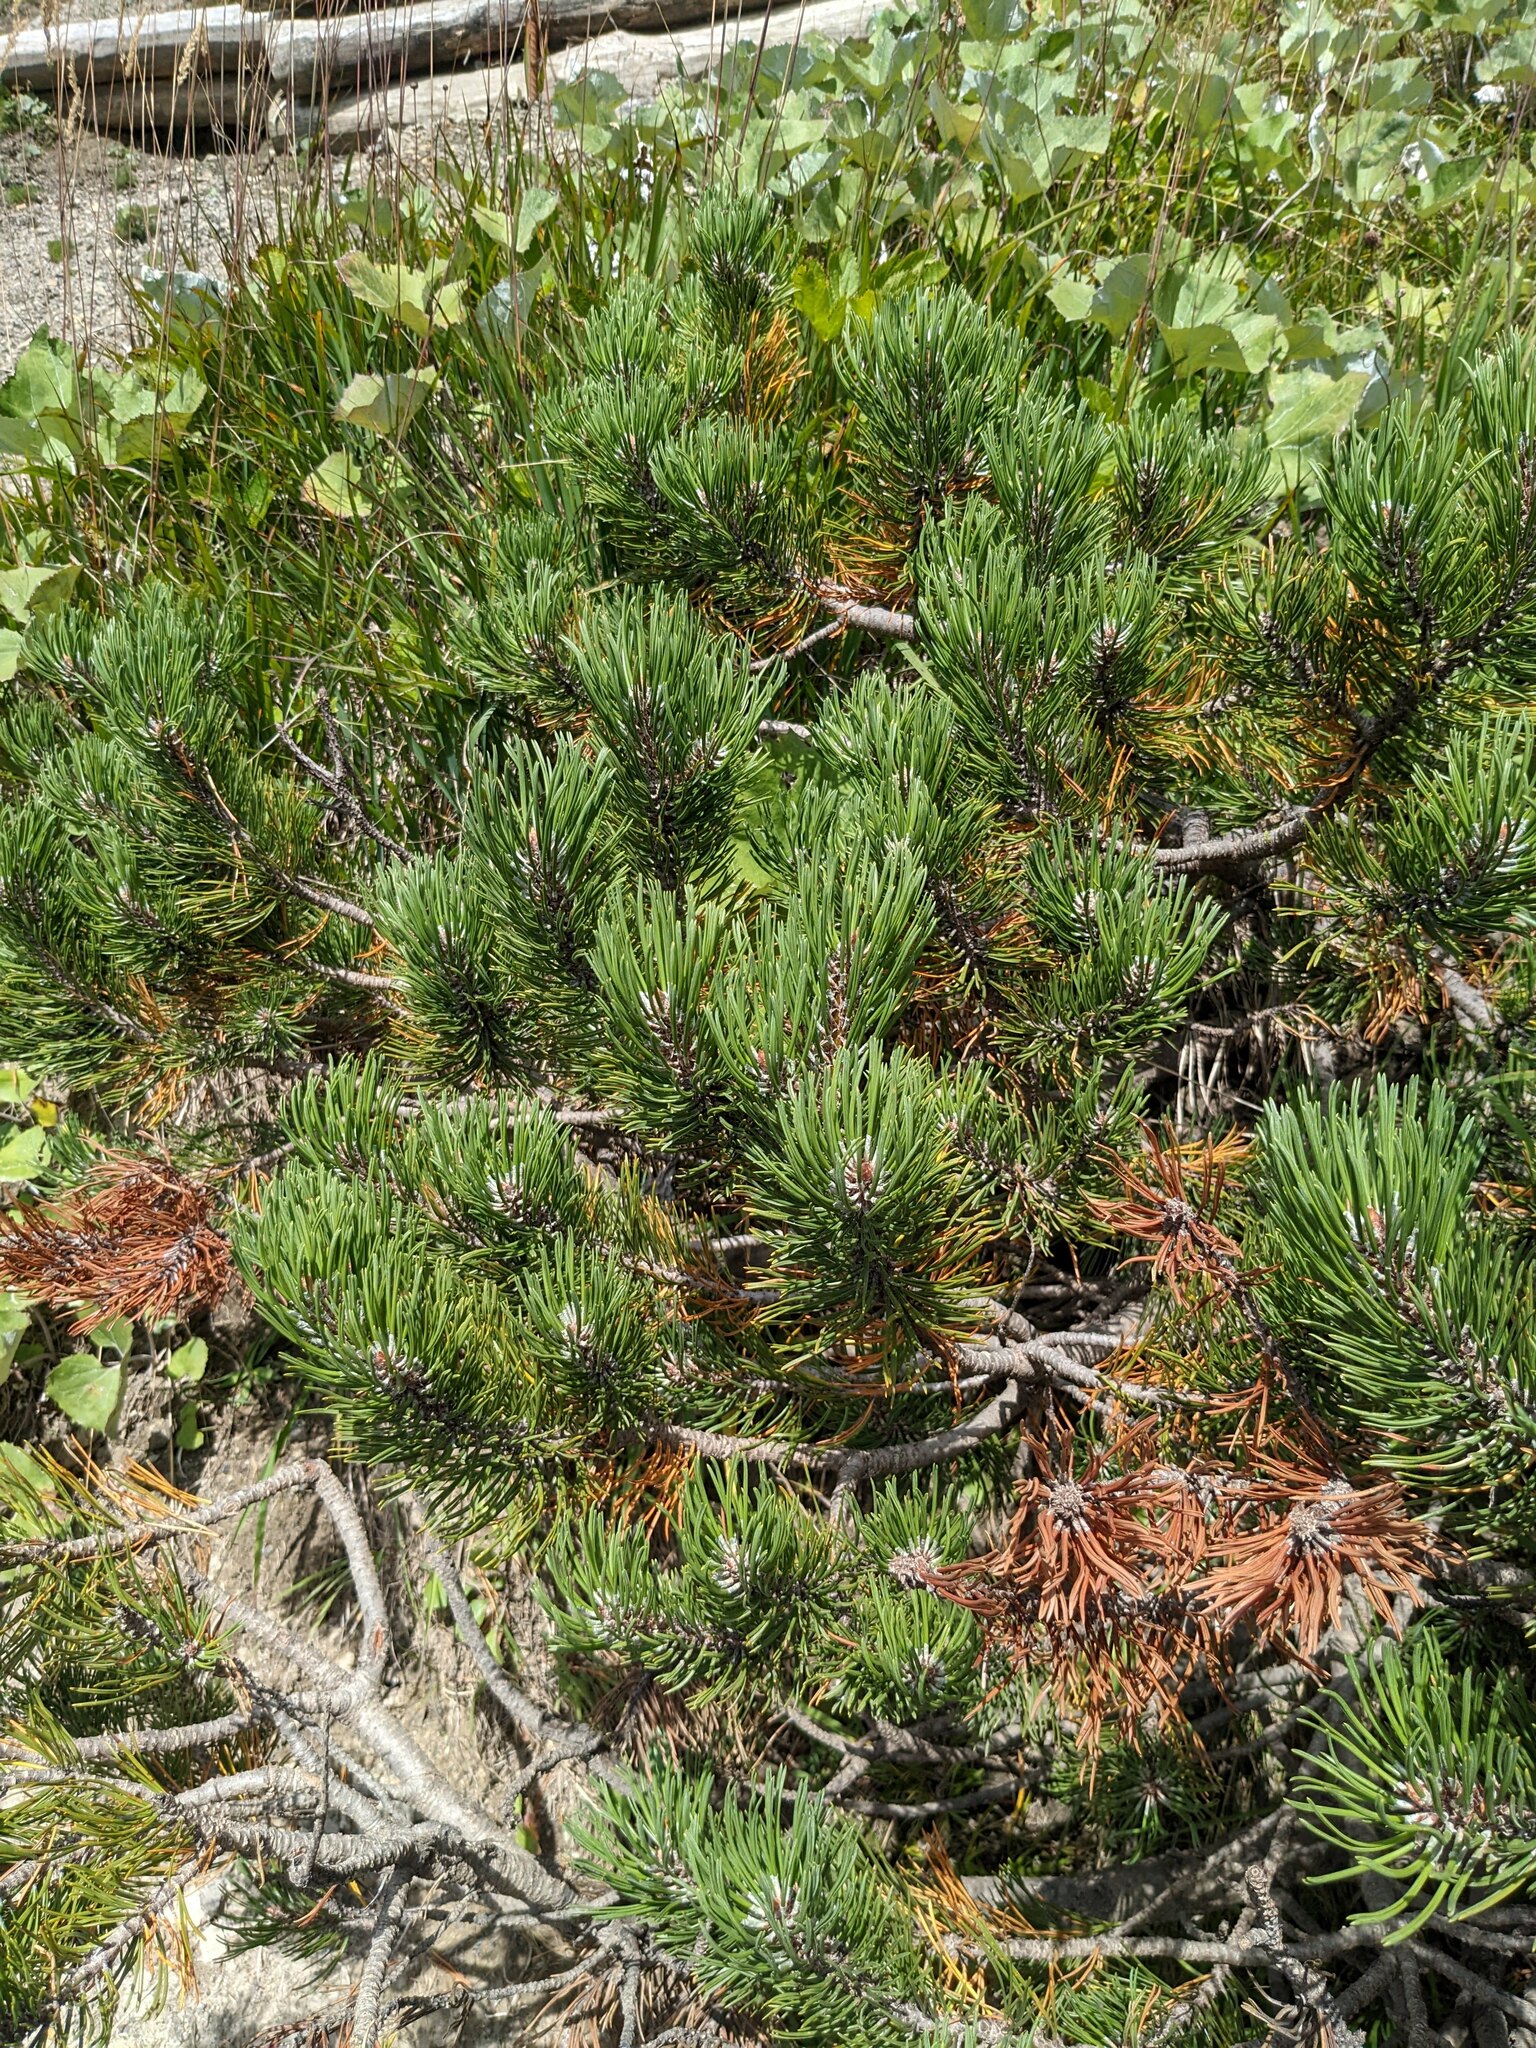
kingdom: Plantae
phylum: Tracheophyta
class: Pinopsida
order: Pinales
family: Pinaceae
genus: Pinus
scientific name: Pinus mugo
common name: Mugo pine
